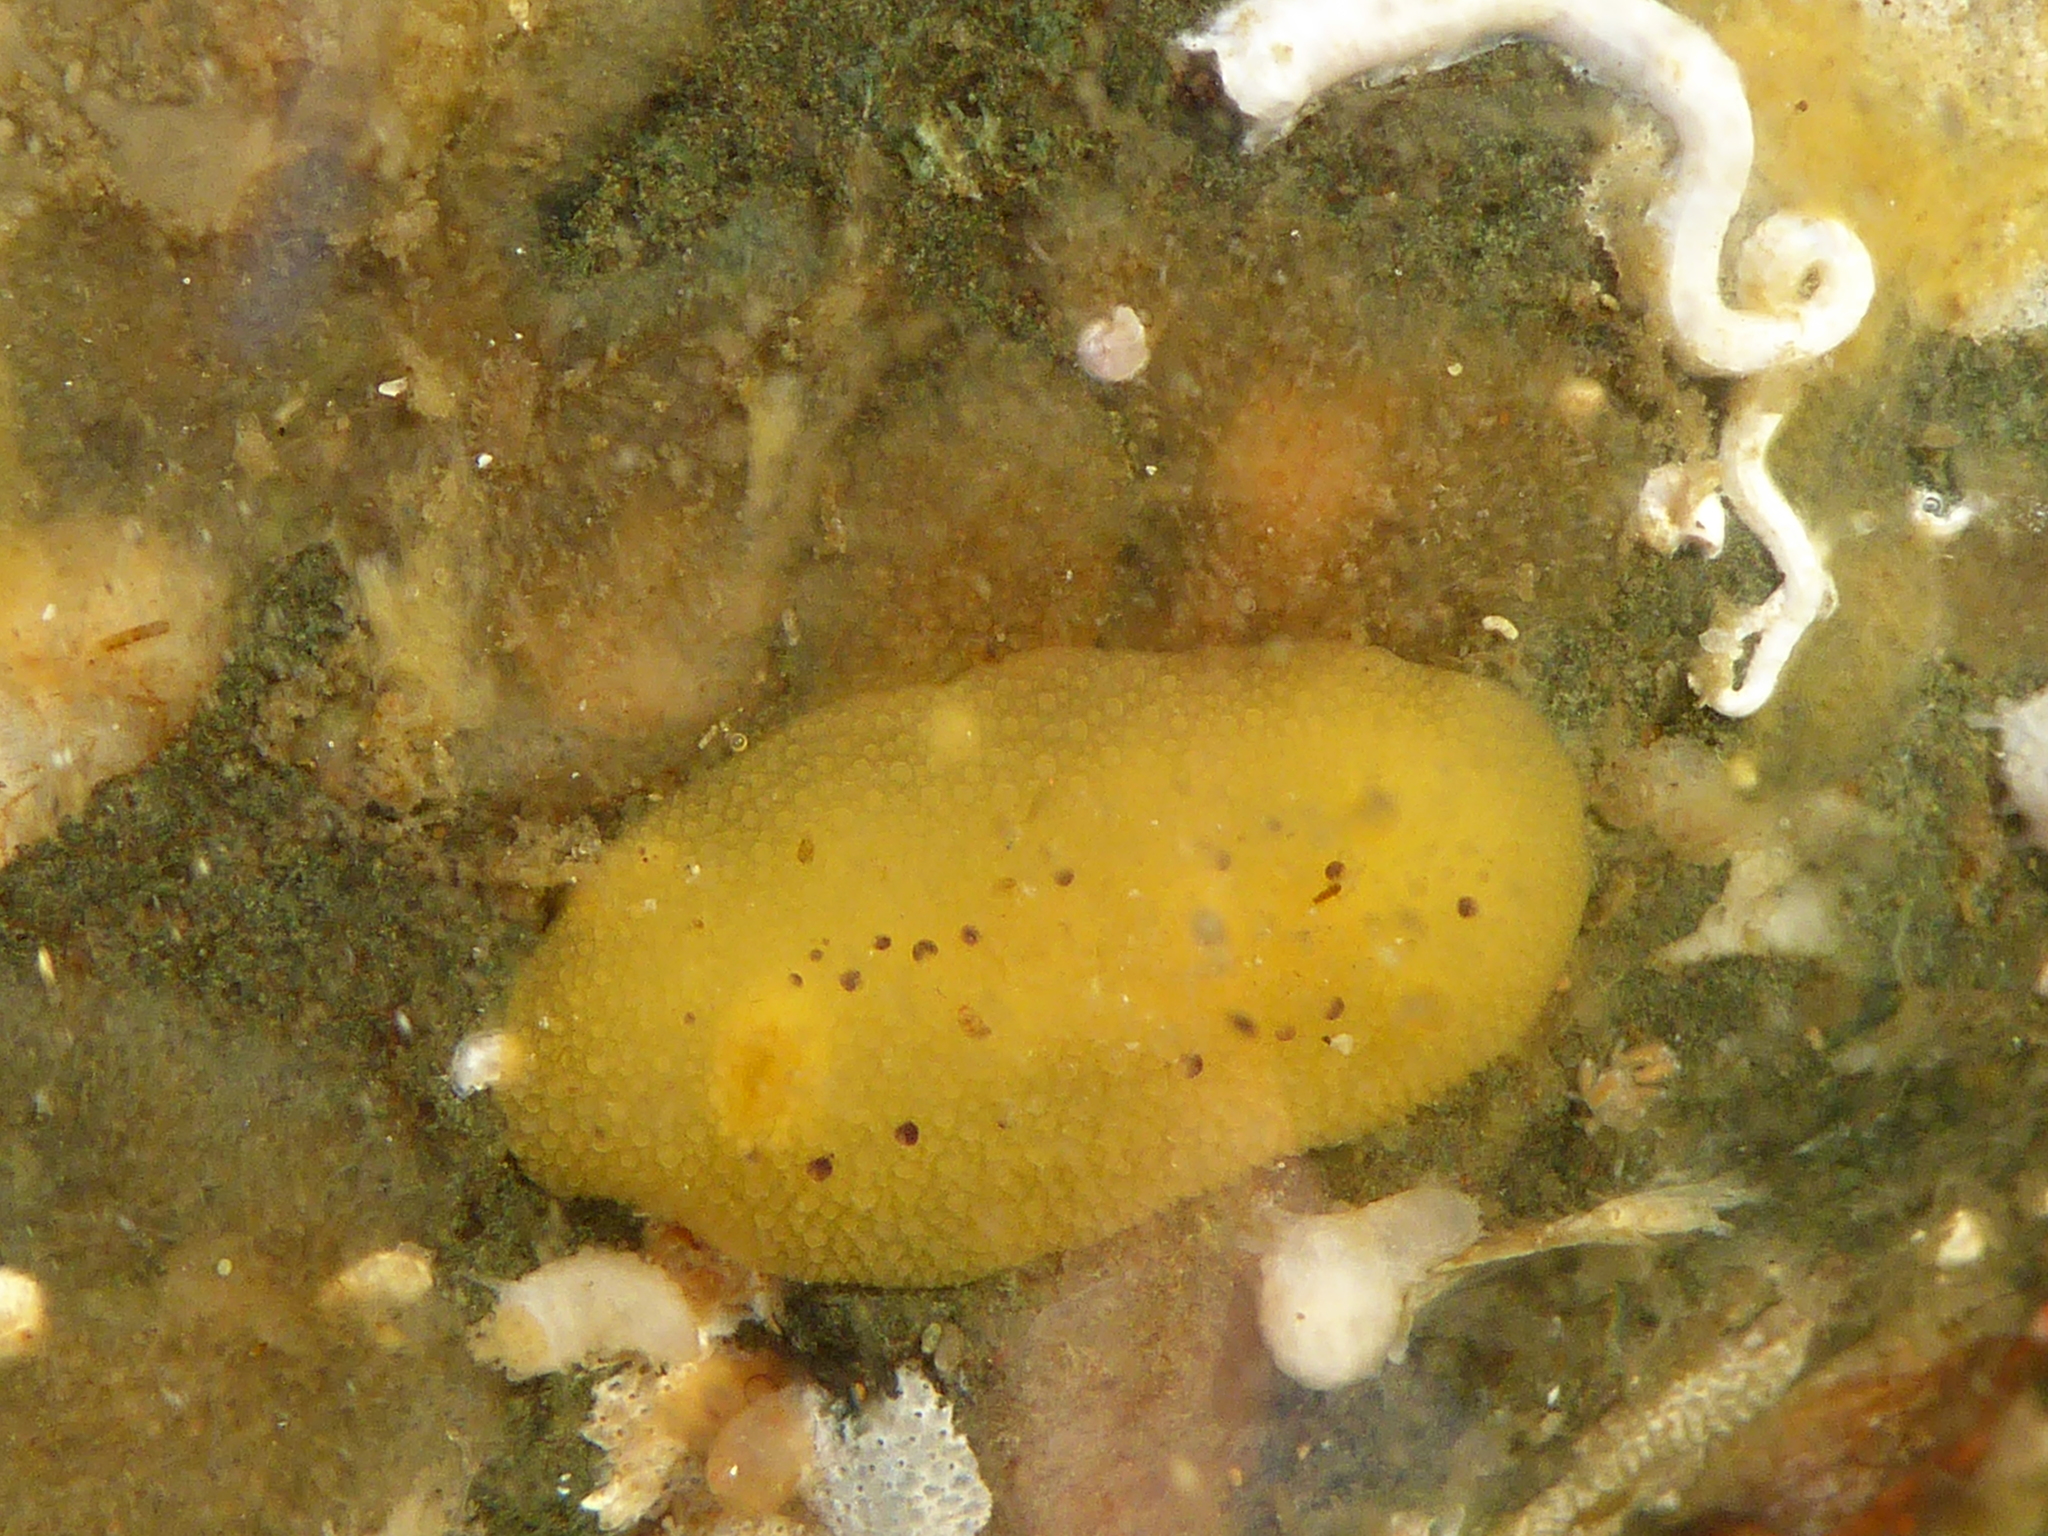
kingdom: Animalia
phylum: Mollusca
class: Gastropoda
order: Nudibranchia
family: Dorididae
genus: Doris
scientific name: Doris montereyensis
